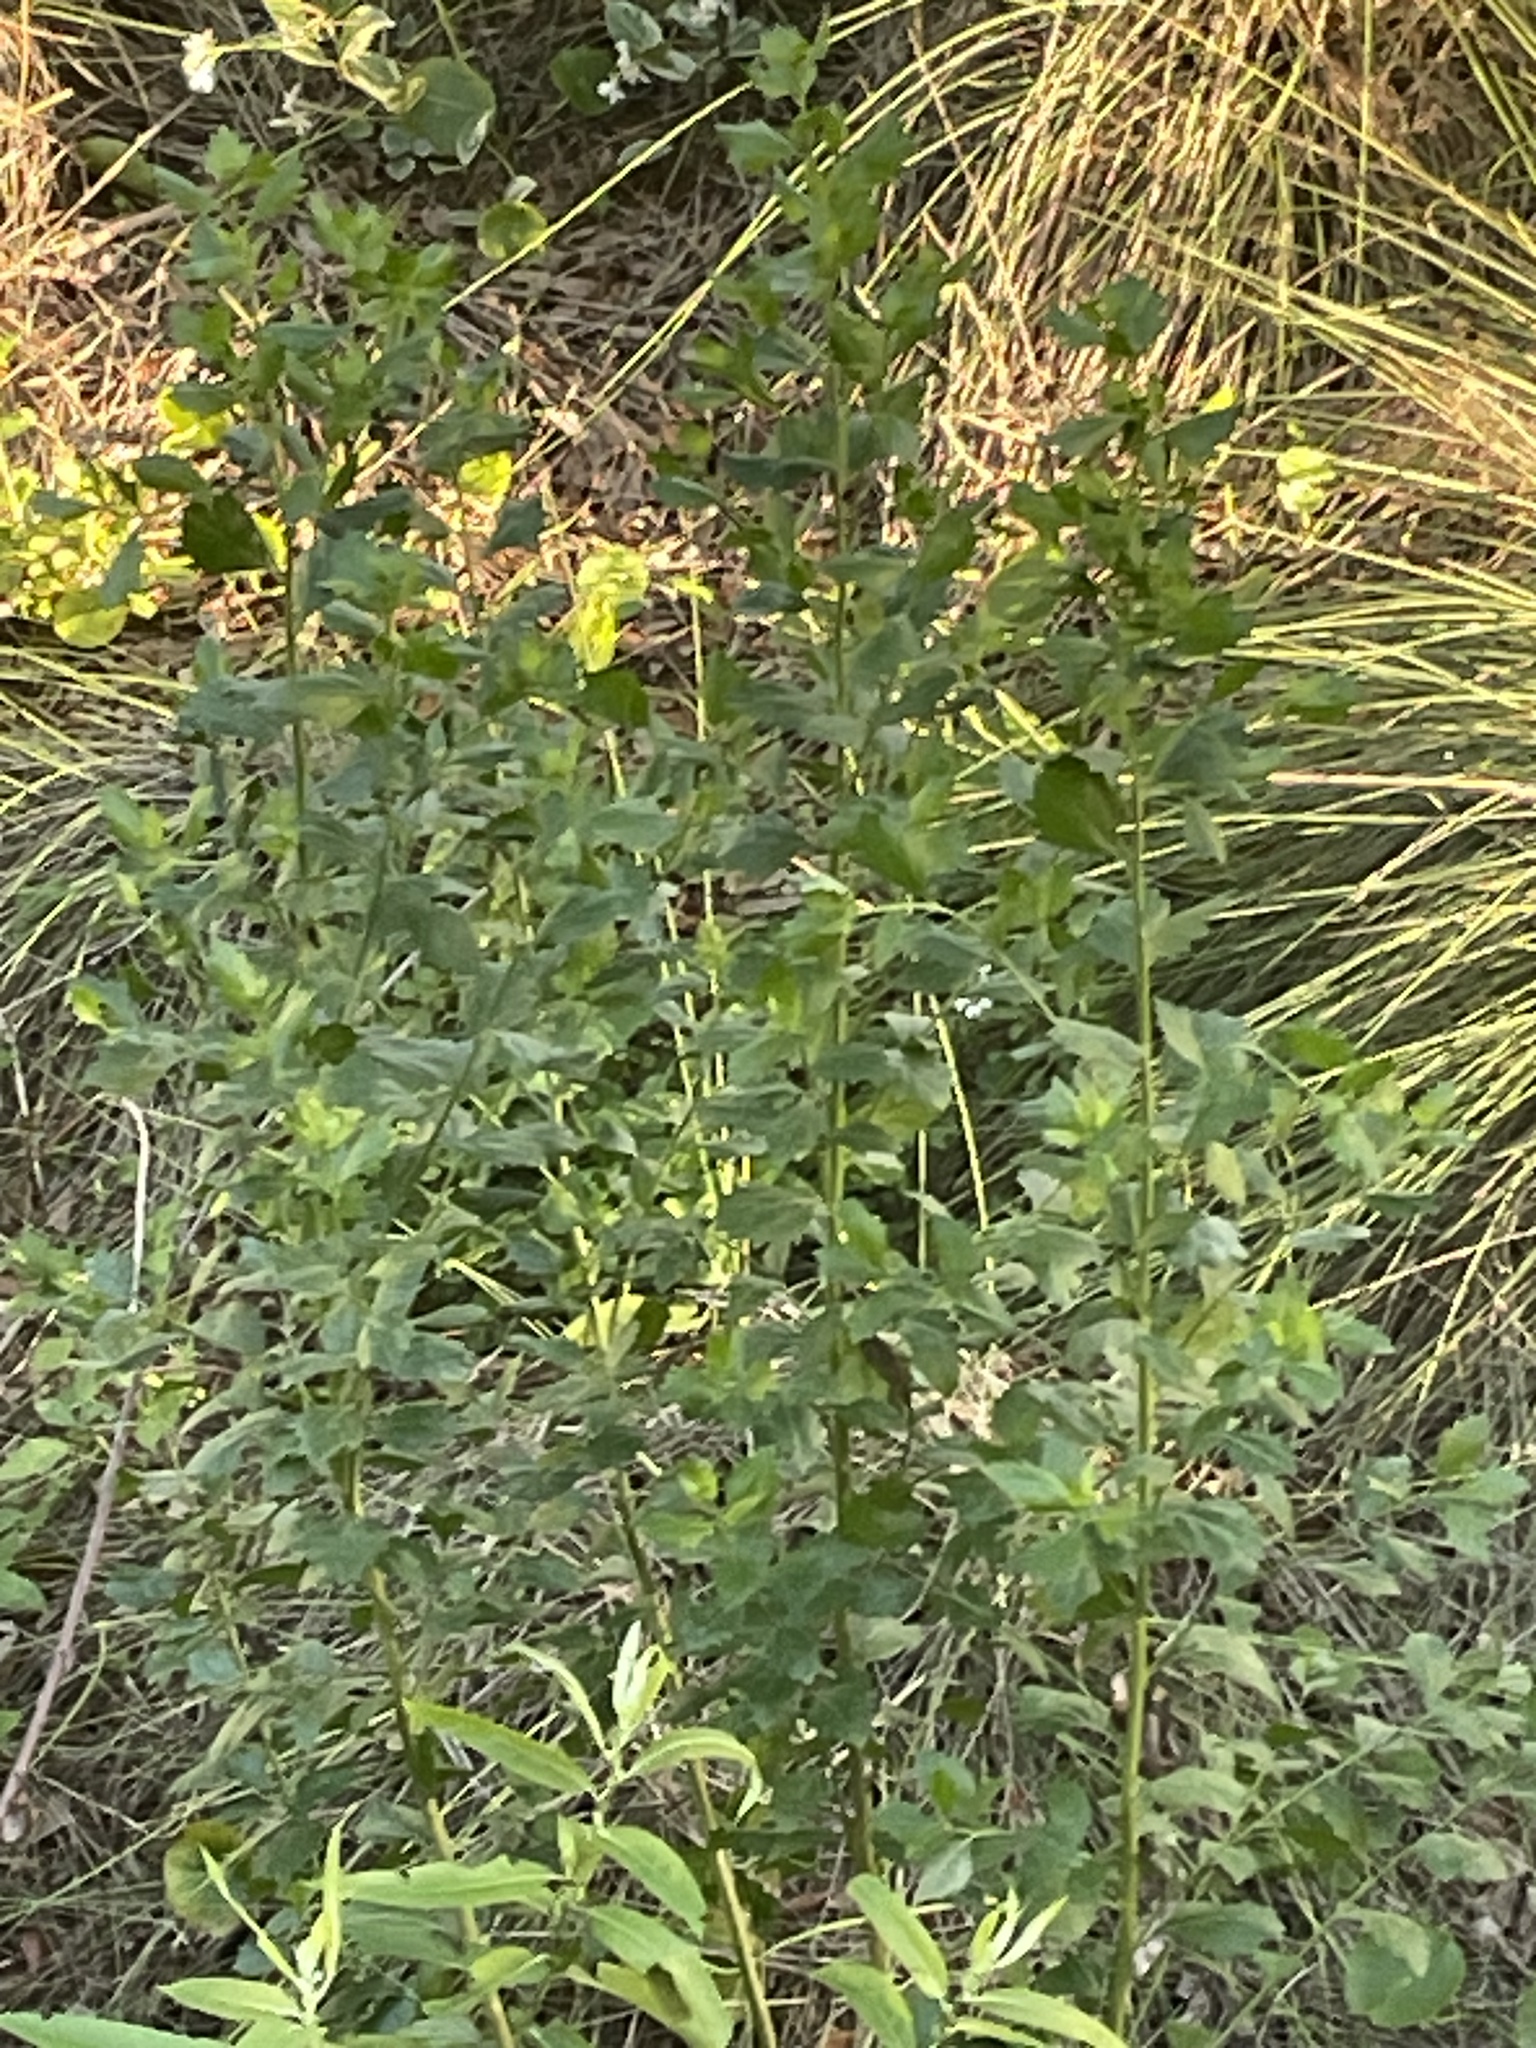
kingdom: Plantae
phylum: Tracheophyta
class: Magnoliopsida
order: Asterales
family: Asteraceae
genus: Baccharis
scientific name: Baccharis halimifolia
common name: Eastern baccharis
